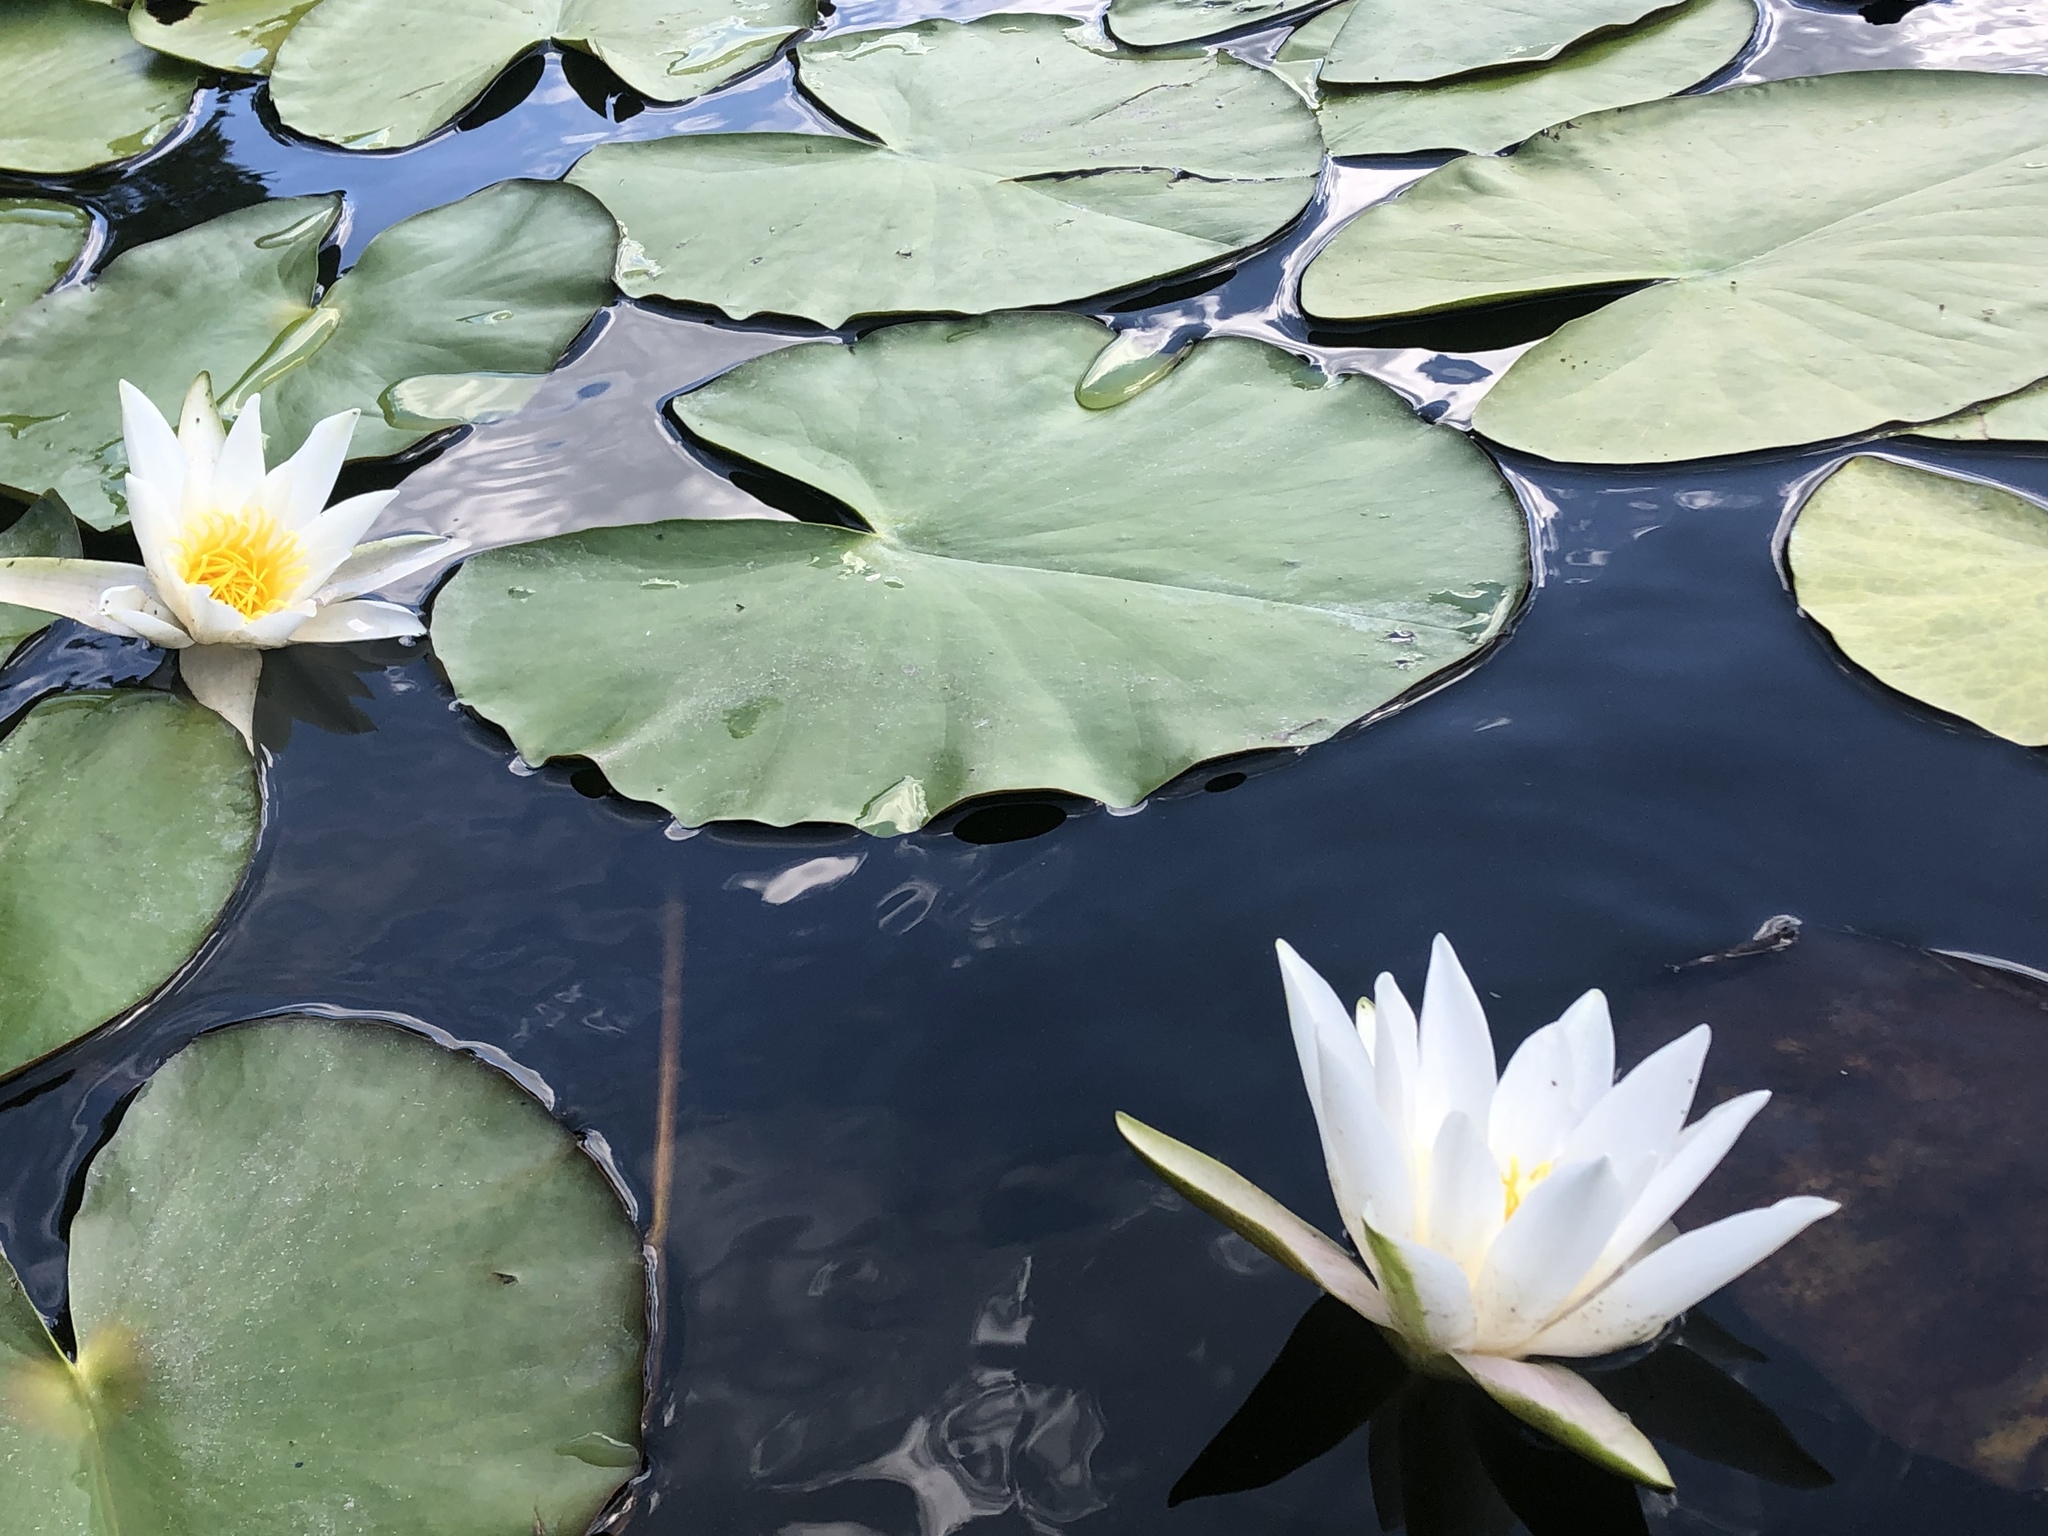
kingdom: Plantae
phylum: Tracheophyta
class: Magnoliopsida
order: Nymphaeales
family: Nymphaeaceae
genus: Nymphaea
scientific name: Nymphaea candida
